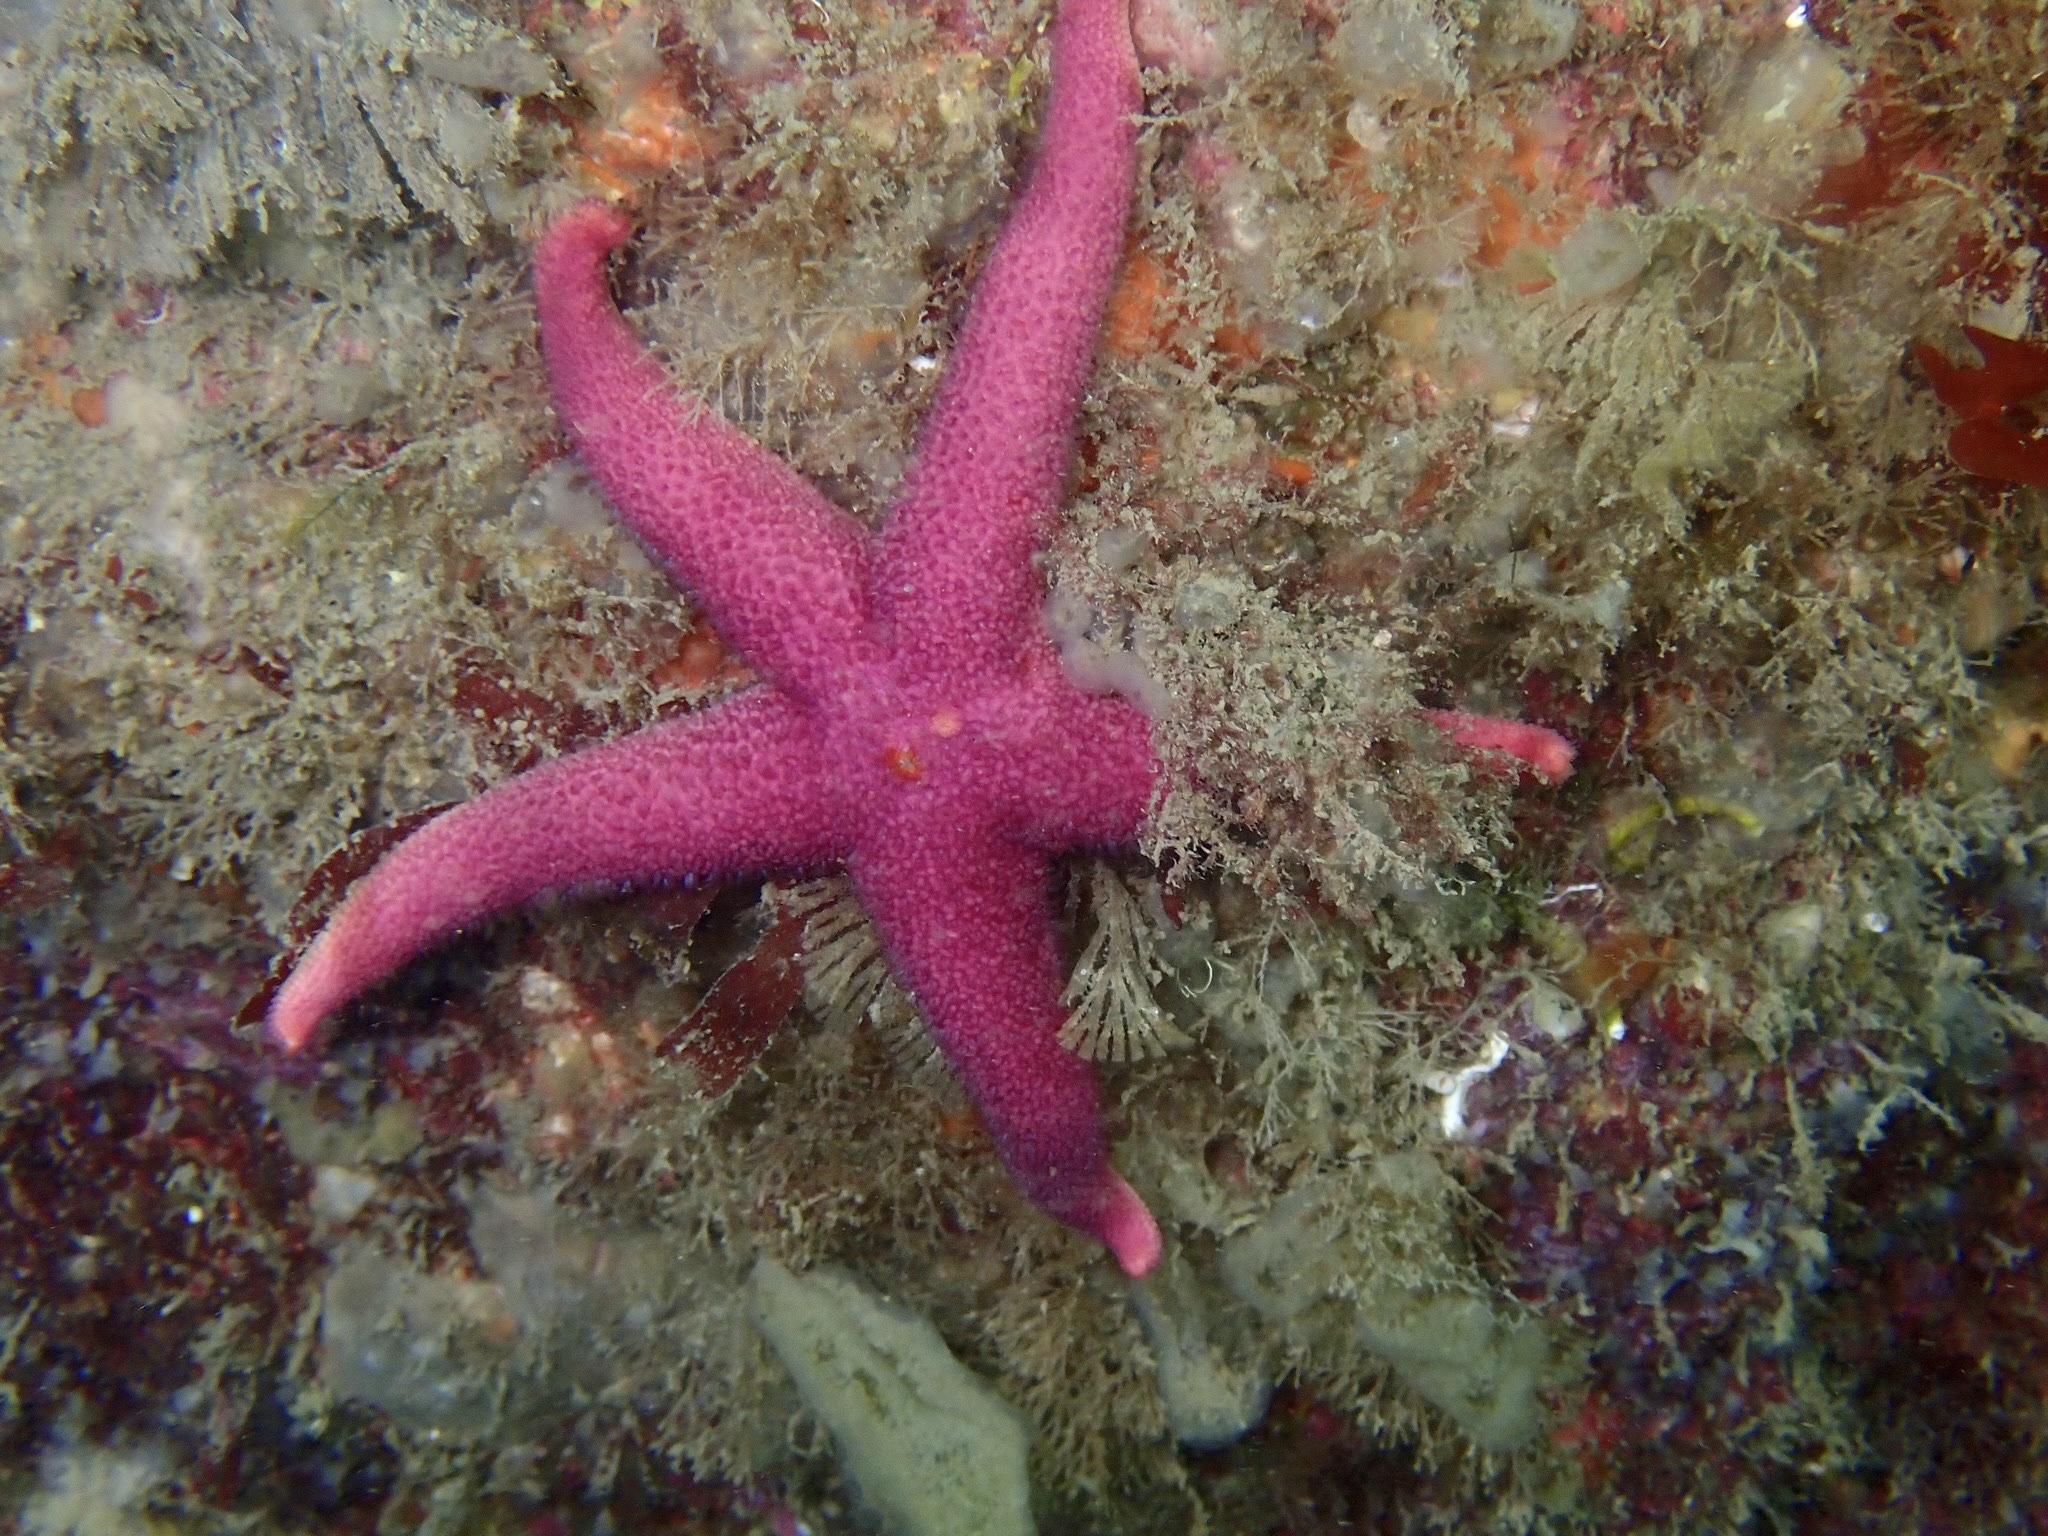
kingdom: Animalia
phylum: Echinodermata
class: Asteroidea
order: Spinulosida
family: Echinasteridae
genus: Henricia
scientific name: Henricia oculata
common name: Bloody henry starfish
